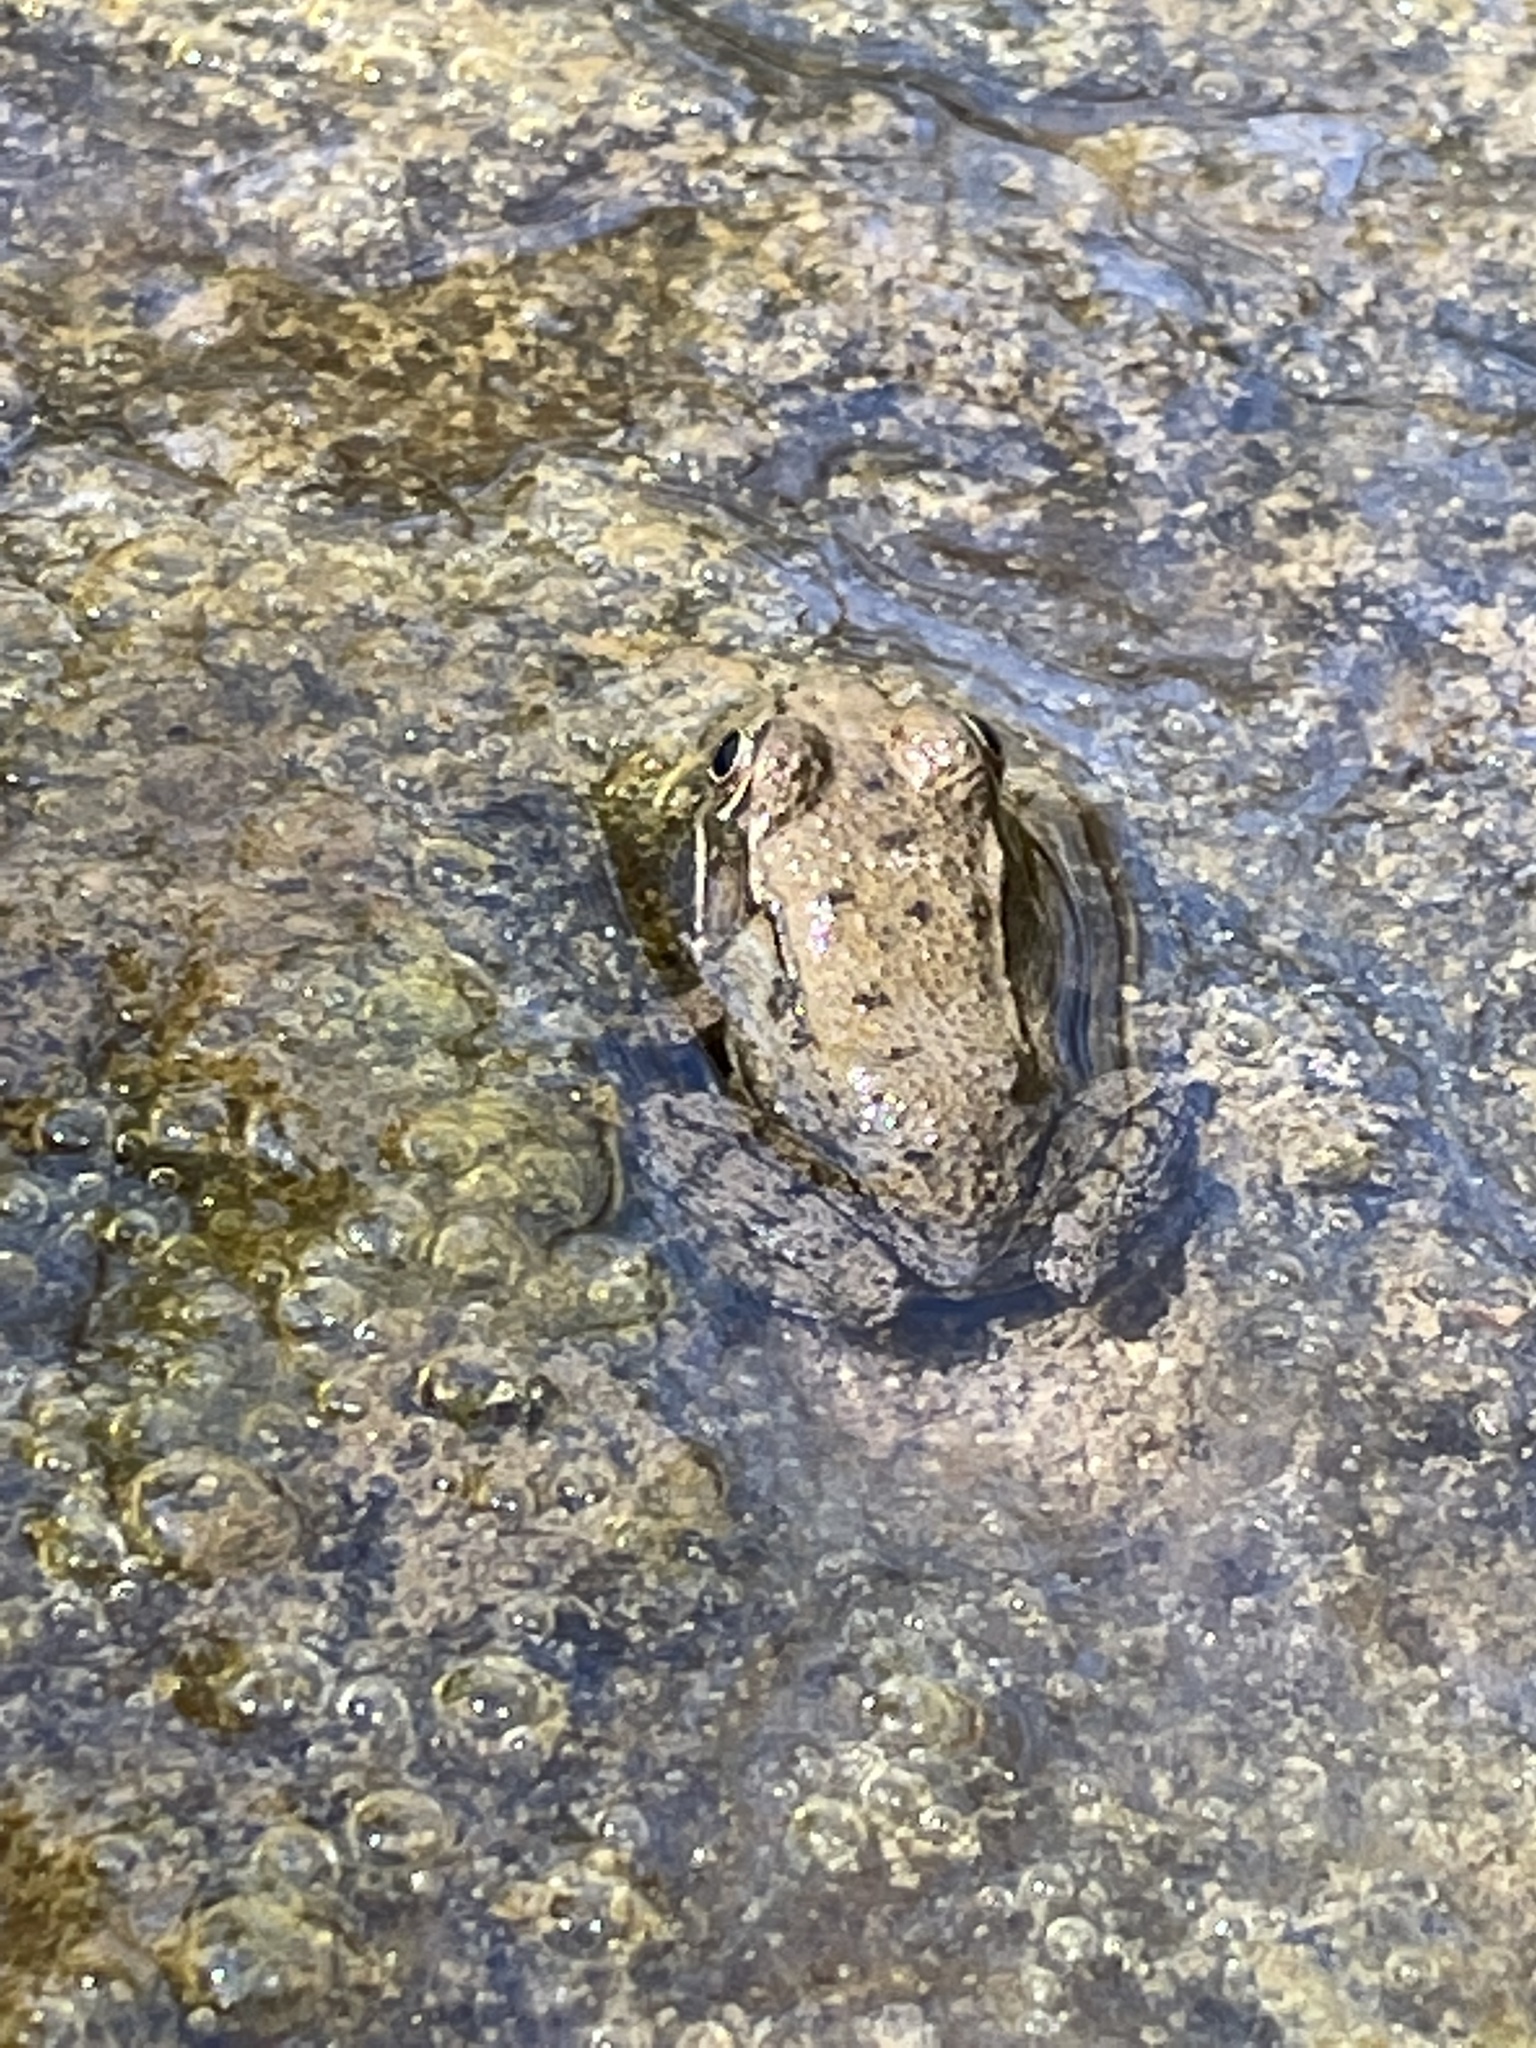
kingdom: Animalia
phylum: Chordata
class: Amphibia
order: Anura
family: Ranidae
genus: Lithobates
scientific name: Lithobates clamitans
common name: Green frog
